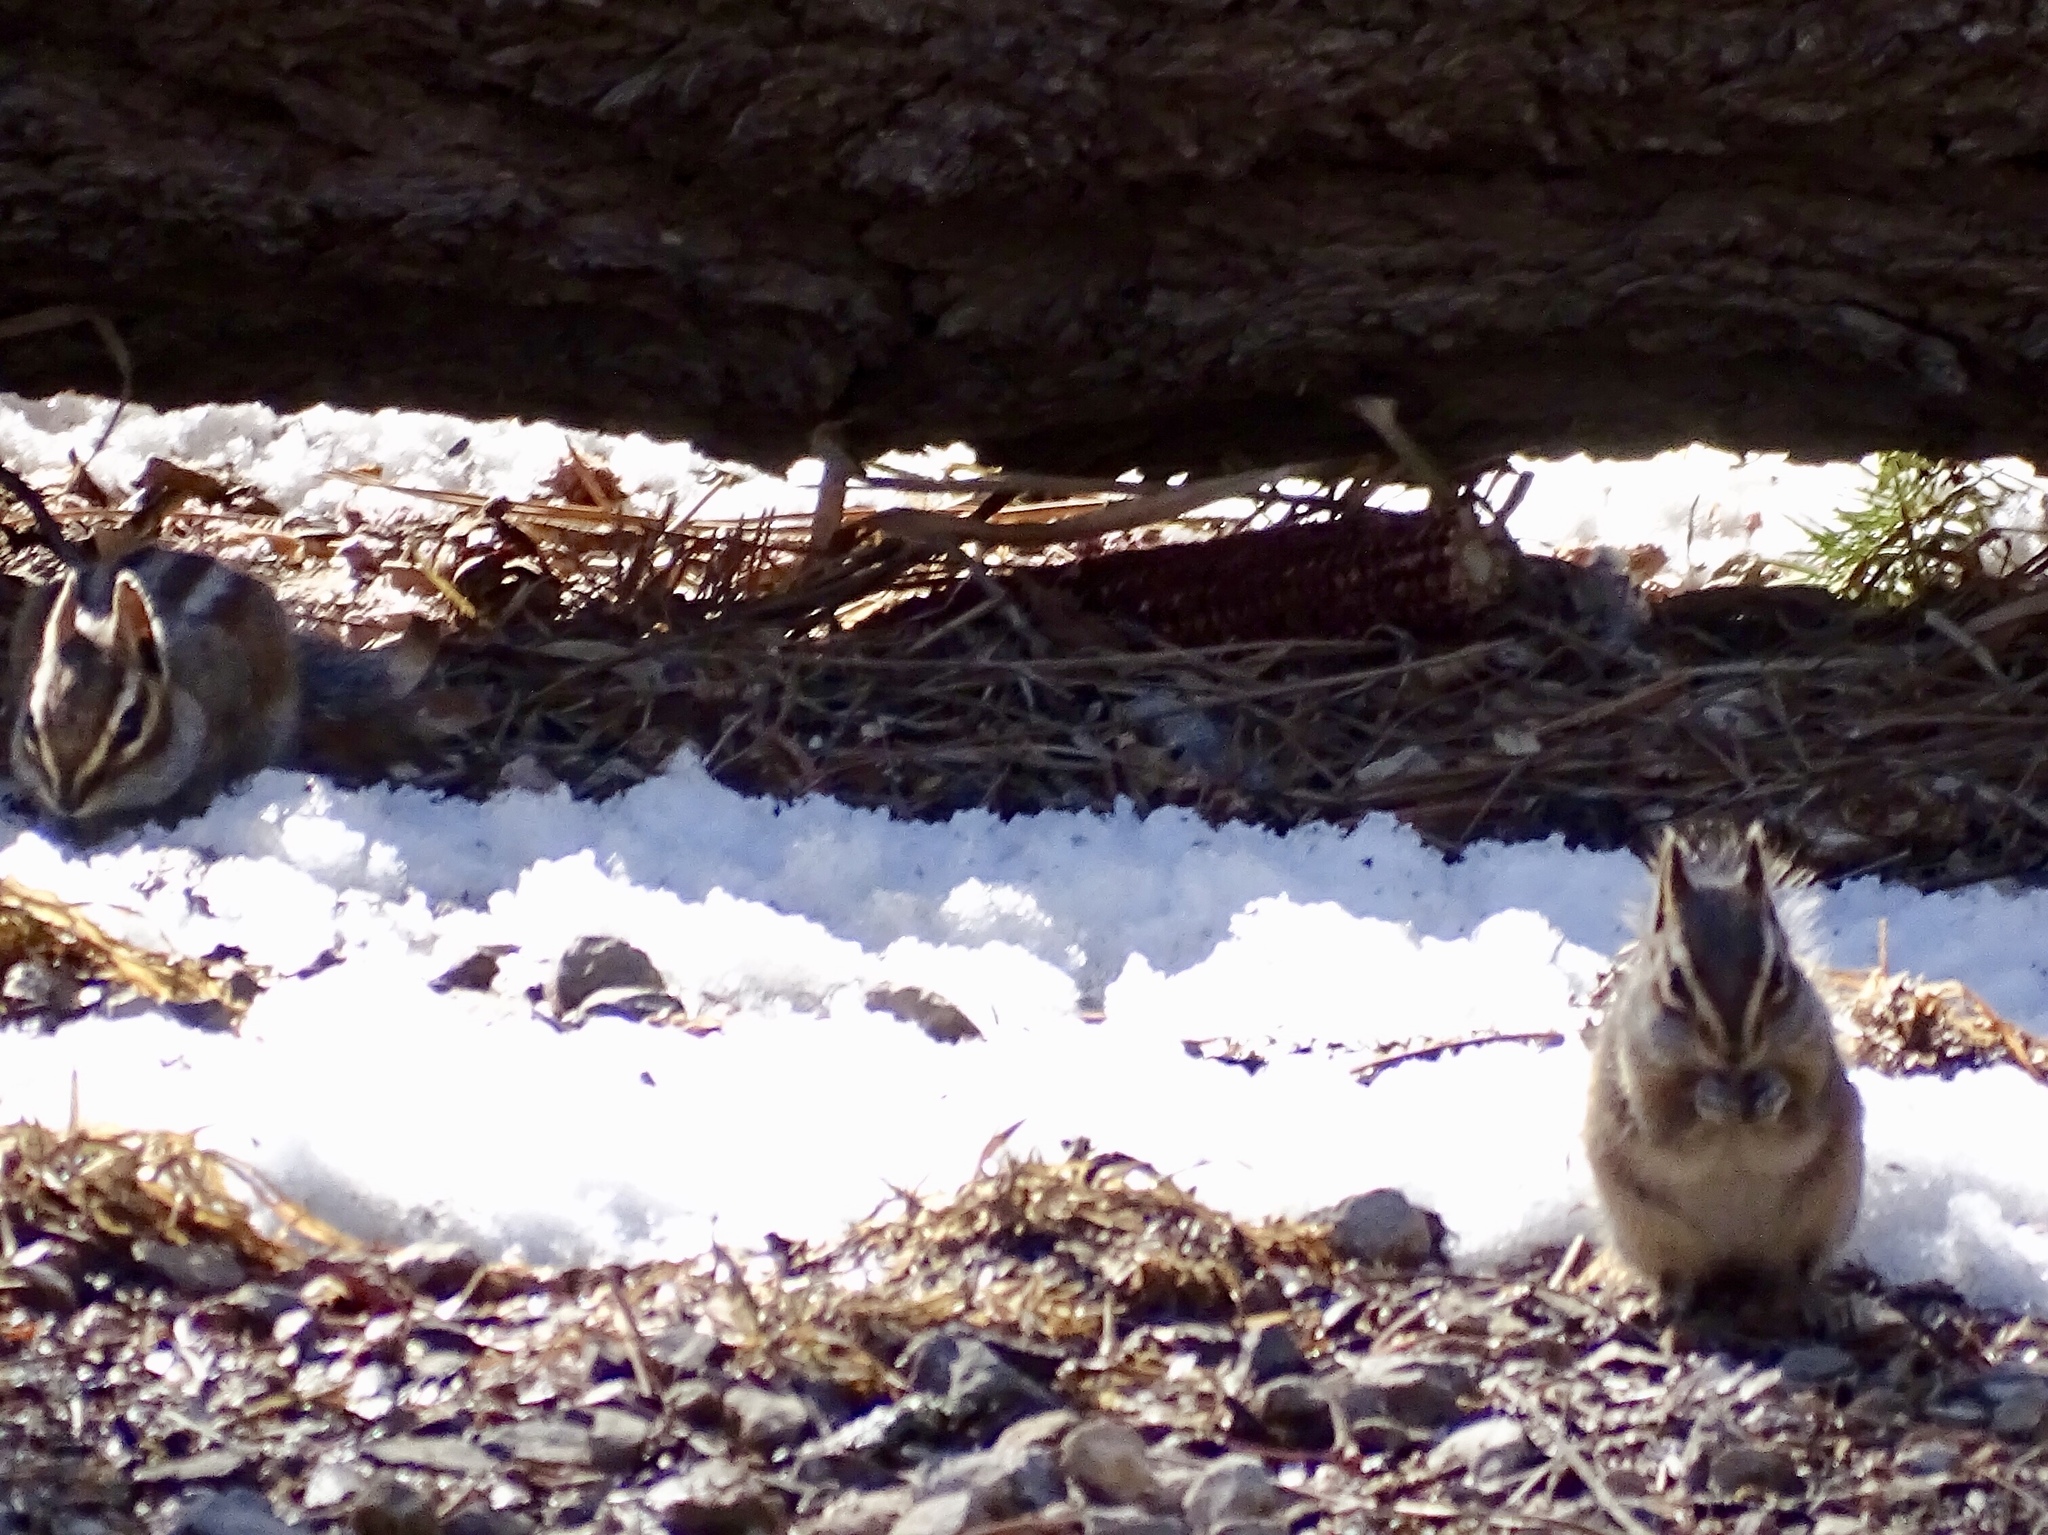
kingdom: Animalia
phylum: Chordata
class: Mammalia
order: Rodentia
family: Sciuridae
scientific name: Sciuridae
